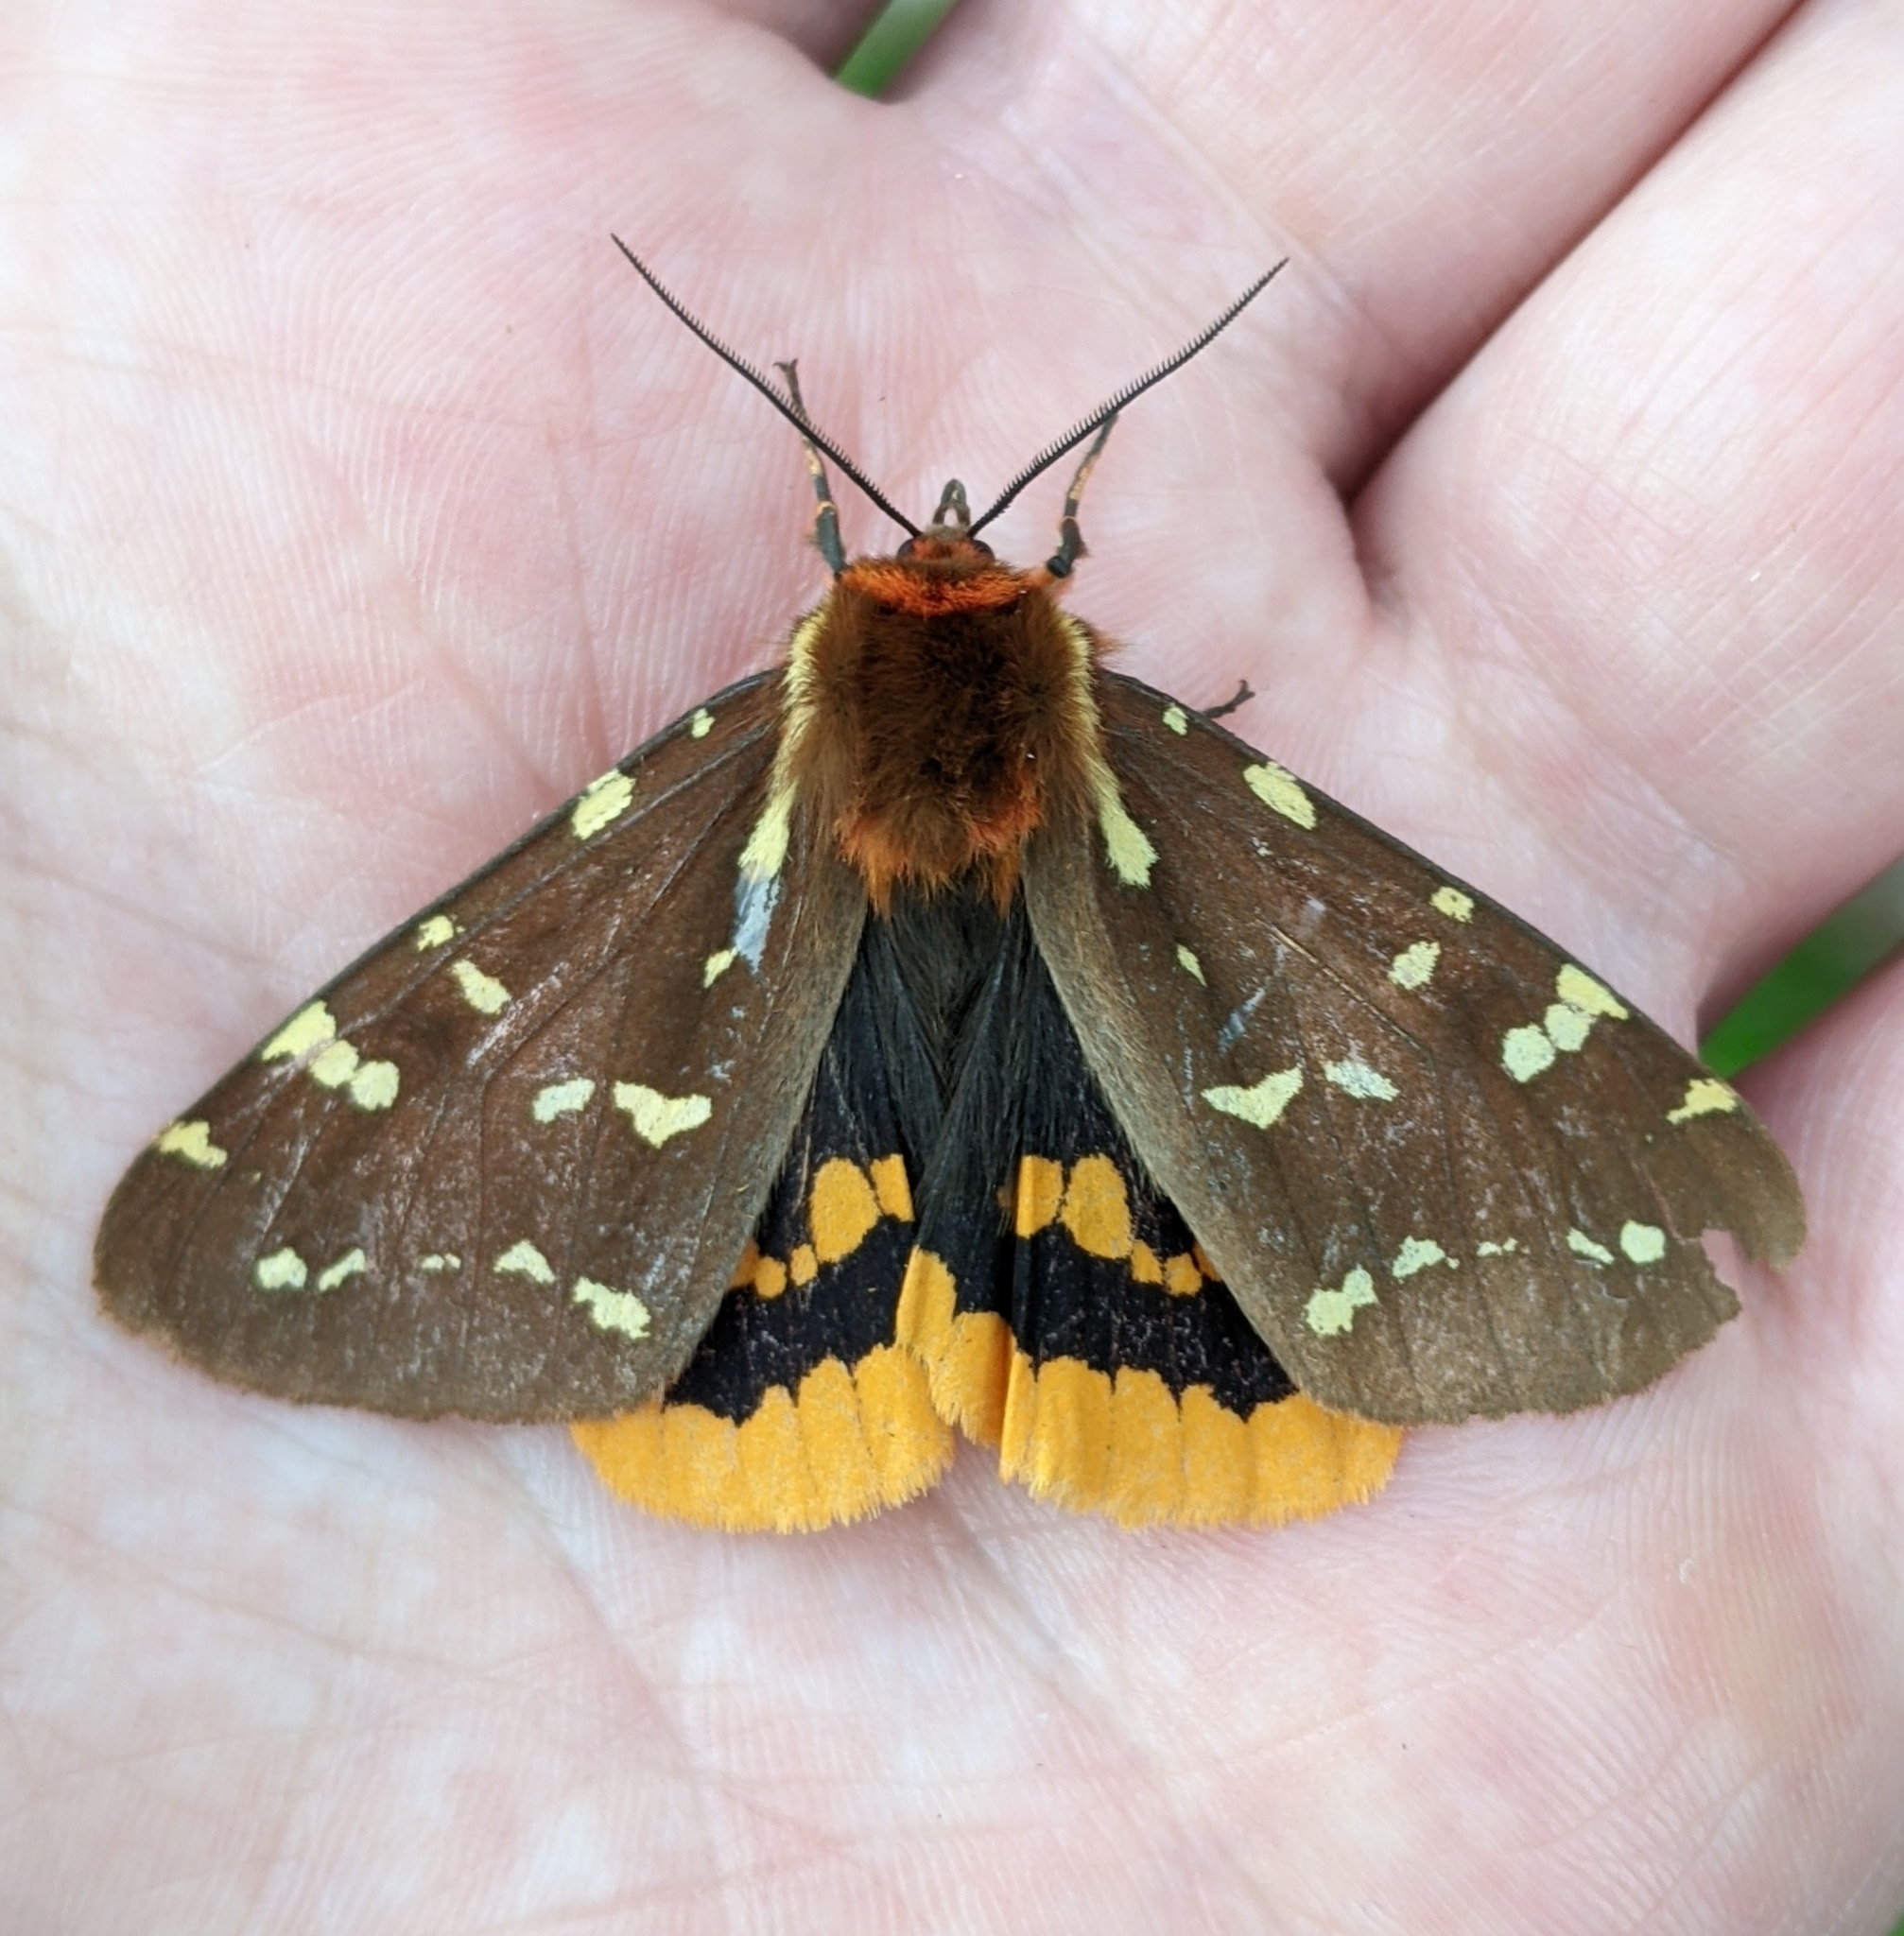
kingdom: Animalia
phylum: Arthropoda
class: Insecta
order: Lepidoptera
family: Erebidae
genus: Arctia
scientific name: Arctia parthenos
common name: St. lawrence tiger moth
